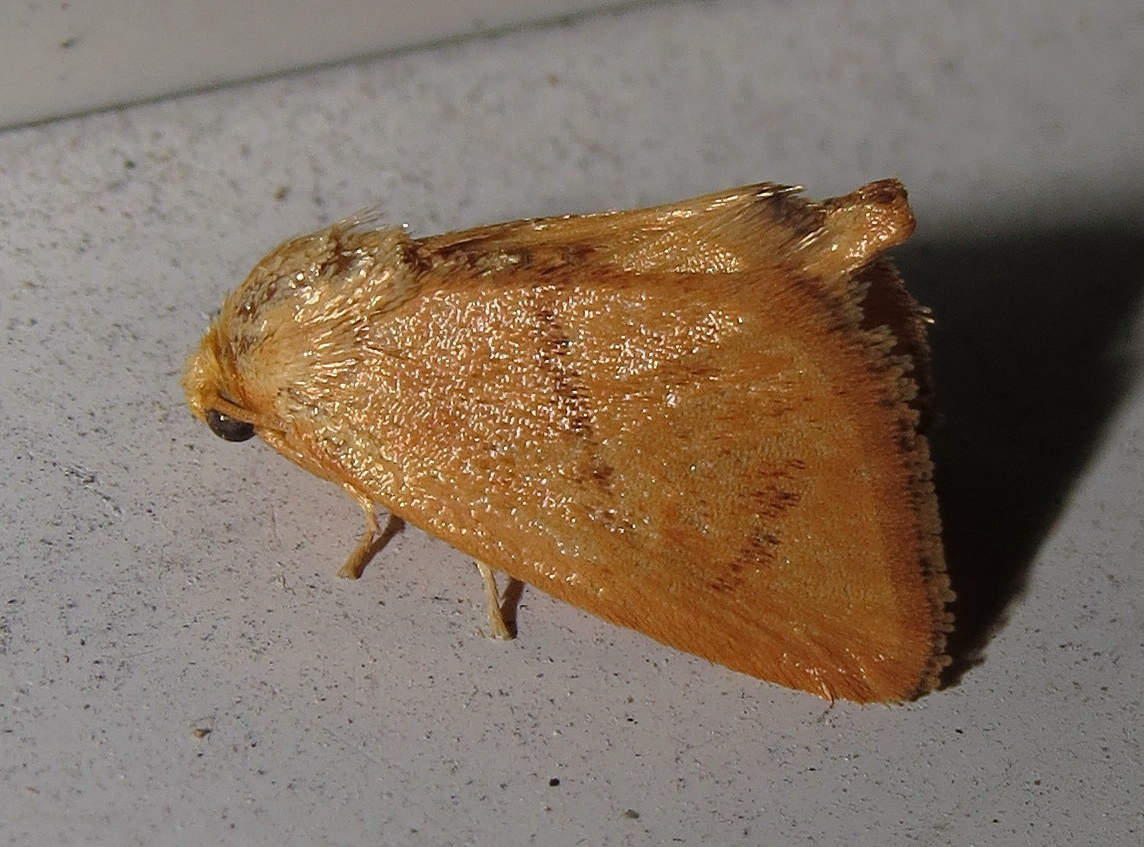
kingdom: Animalia
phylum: Arthropoda
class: Insecta
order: Lepidoptera
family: Limacodidae
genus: Tortricidia
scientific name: Tortricidia pallida
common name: Red-crossed button slug moth
